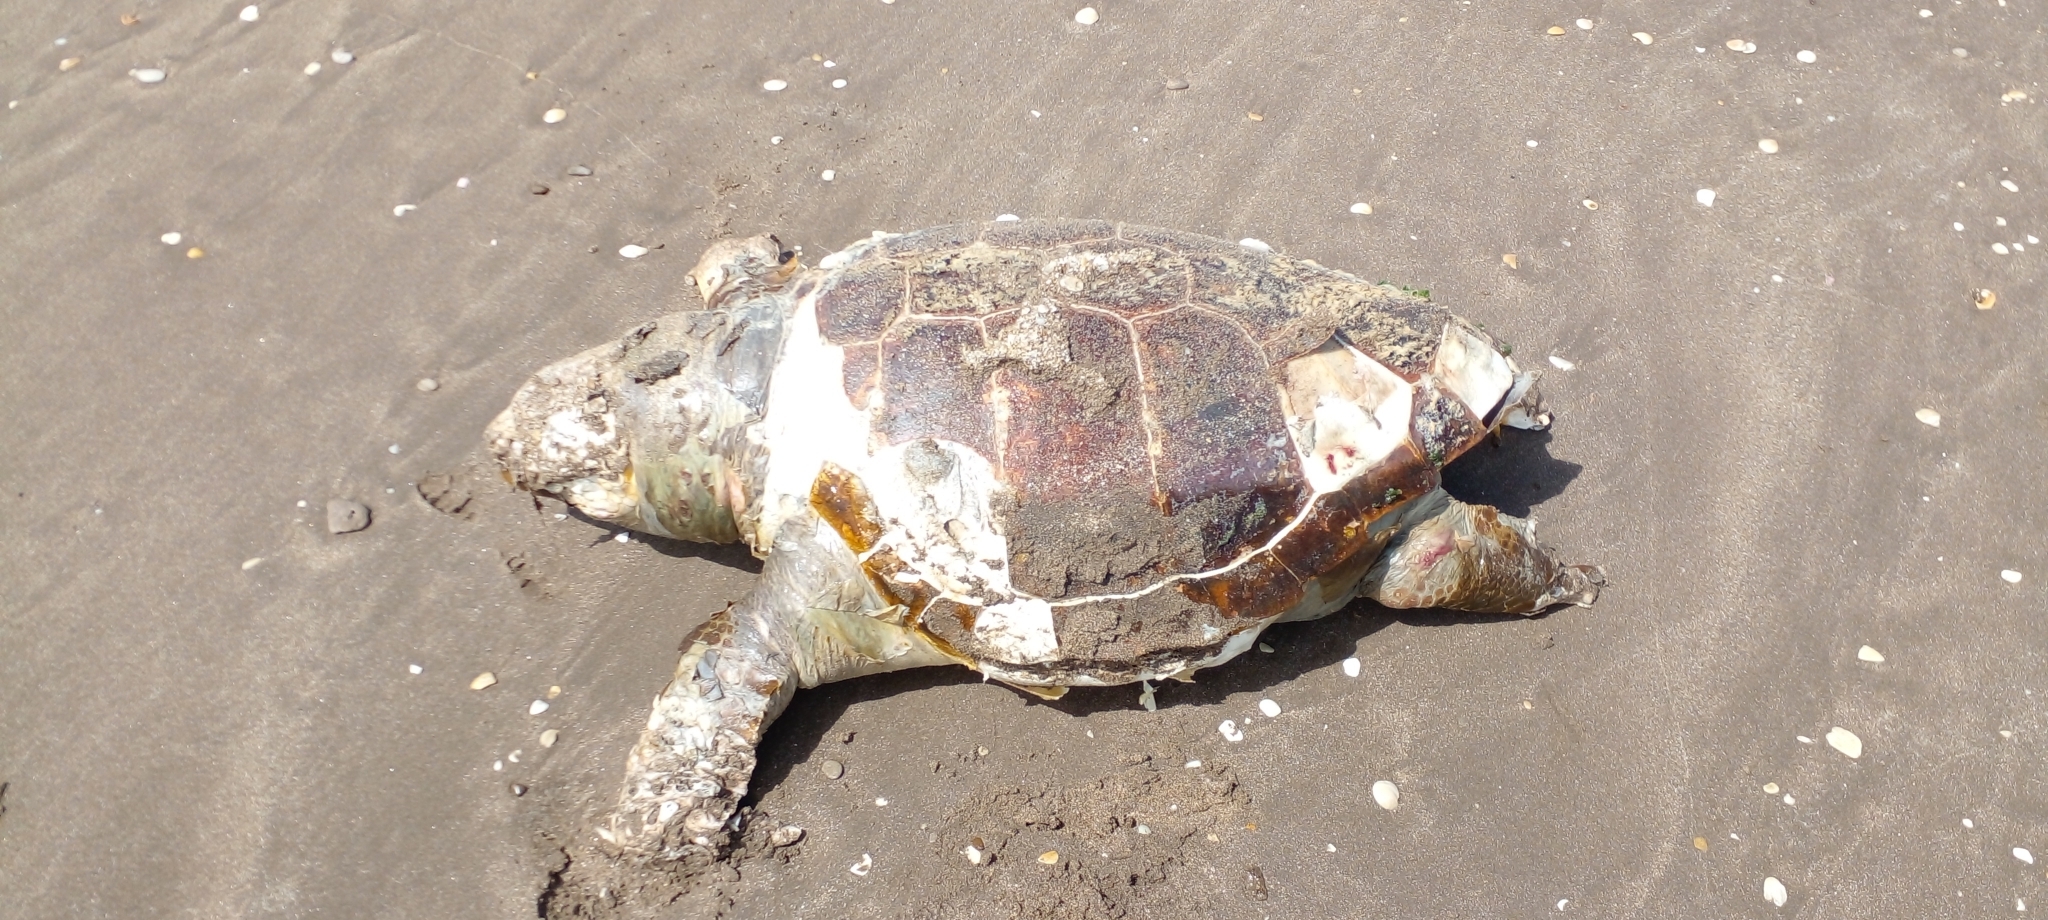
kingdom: Animalia
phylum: Chordata
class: Testudines
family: Cheloniidae
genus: Caretta
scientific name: Caretta caretta
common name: Loggerhead sea turtle
